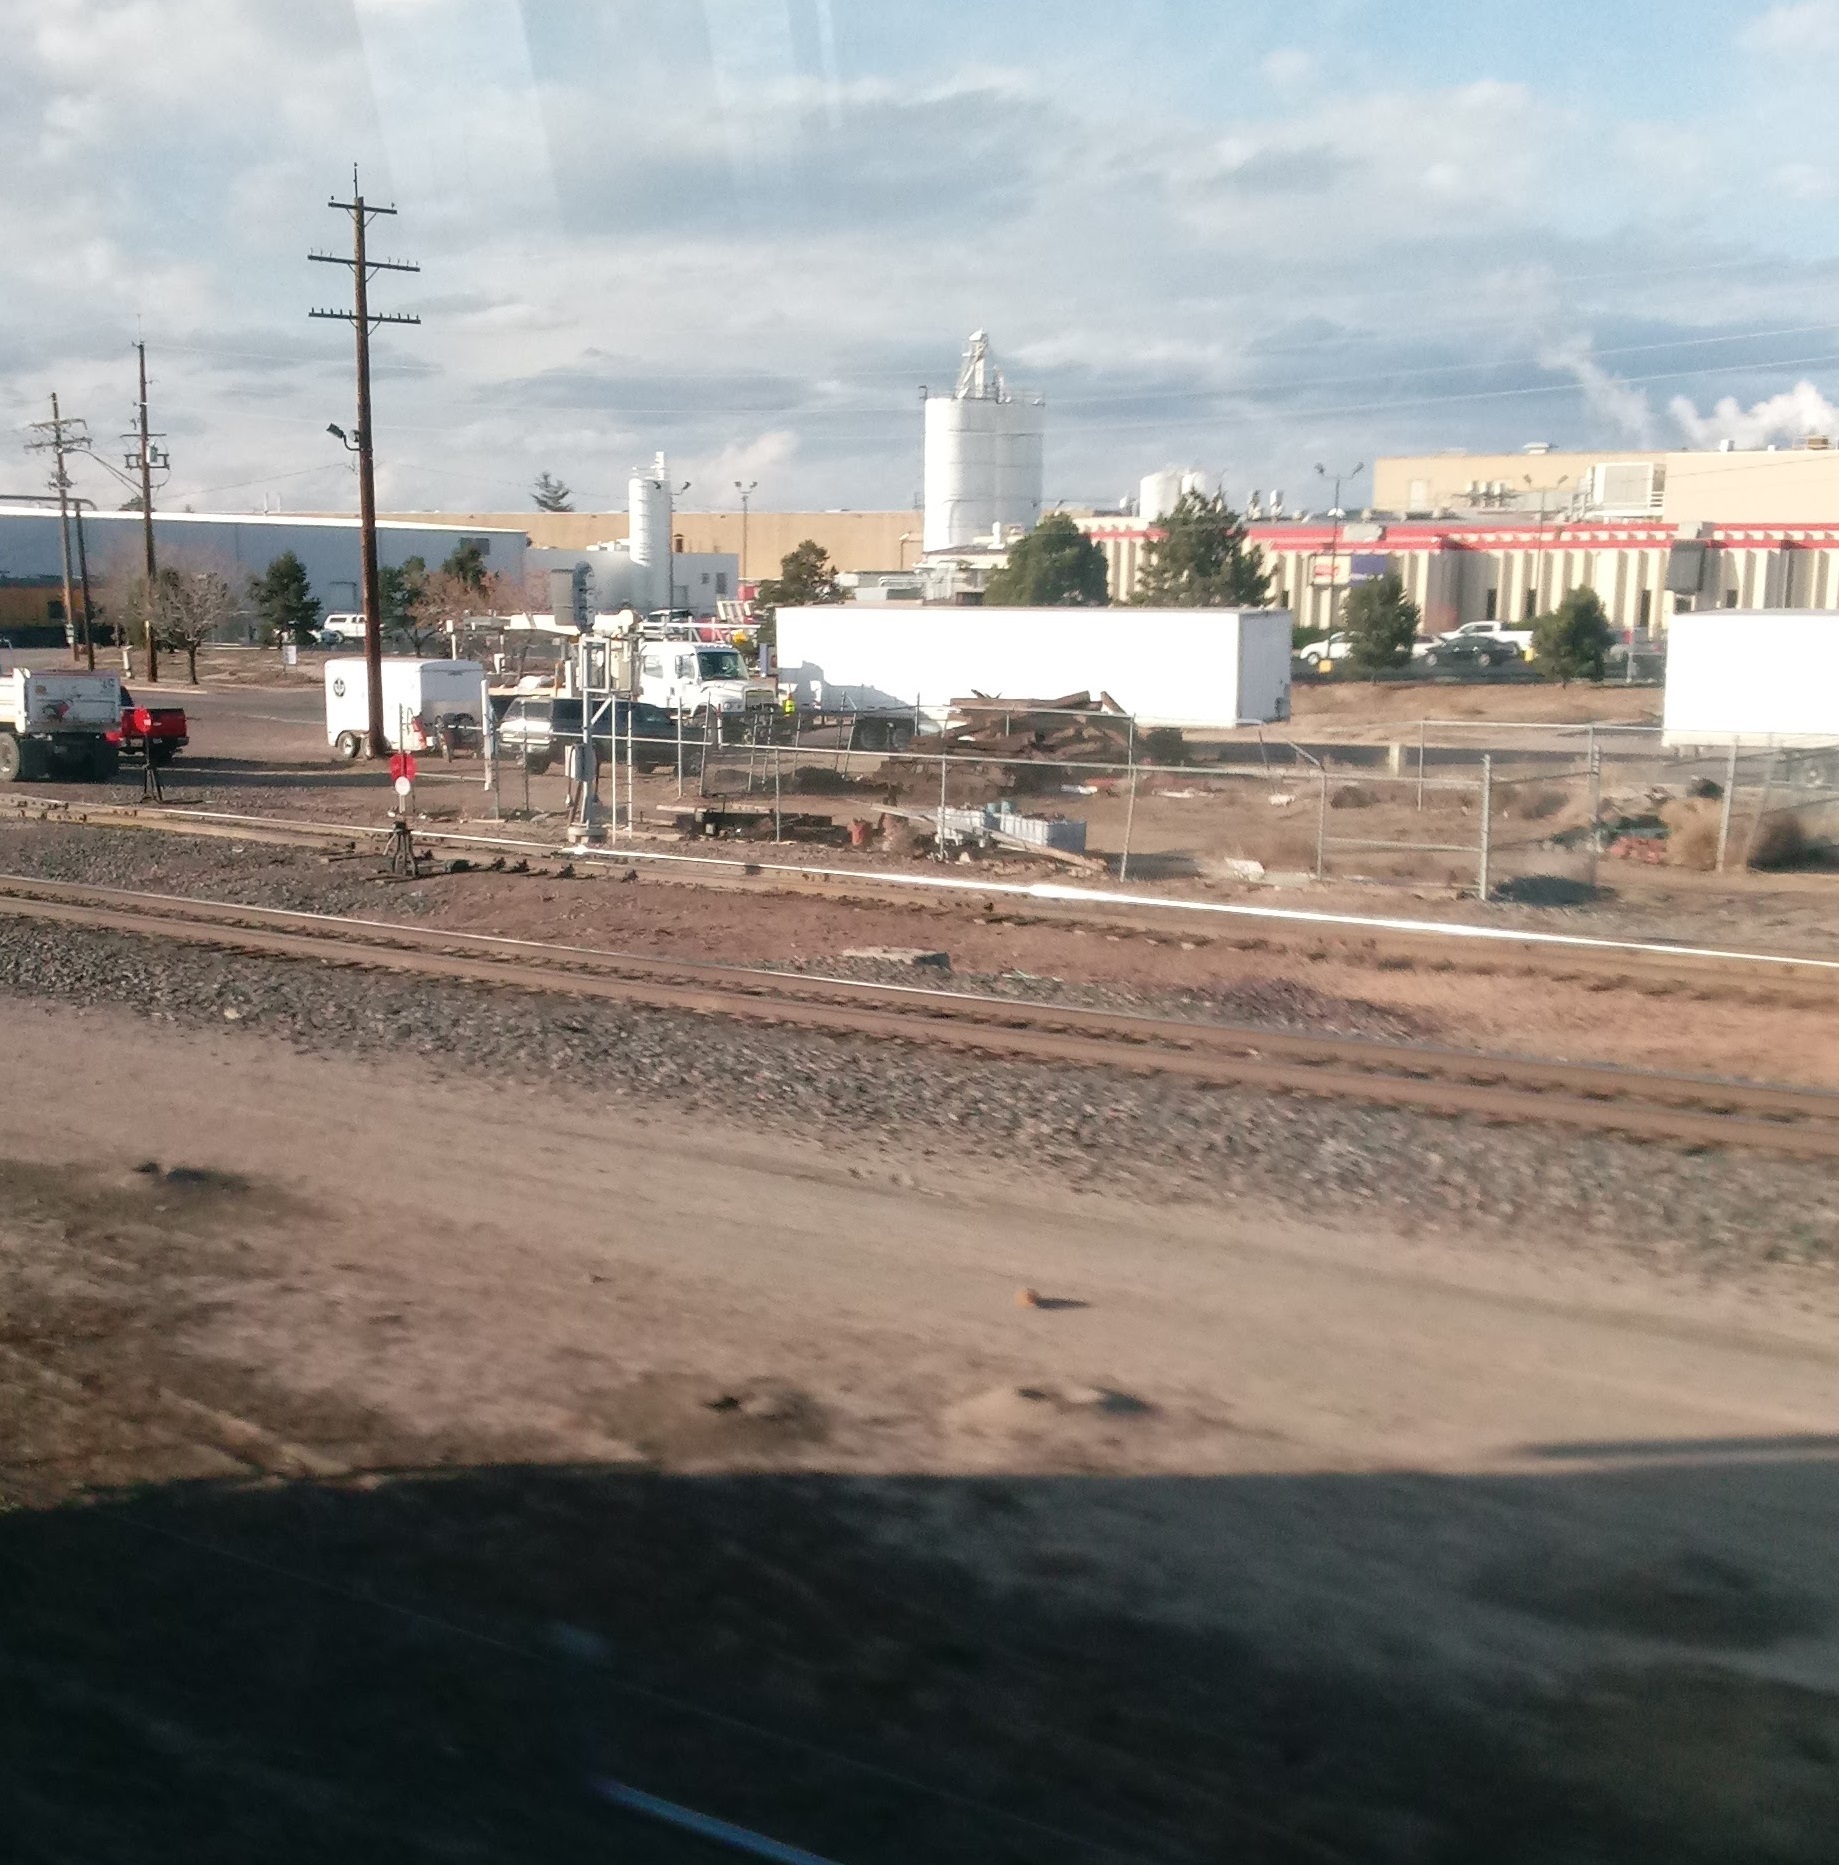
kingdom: Animalia
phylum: Chordata
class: Mammalia
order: Rodentia
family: Sciuridae
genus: Cynomys
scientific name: Cynomys ludovicianus
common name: Black-tailed prairie dog
